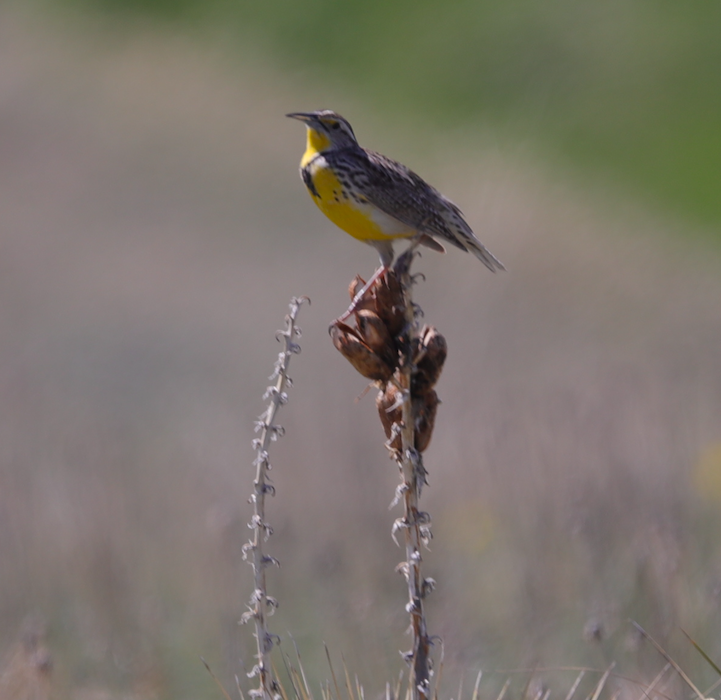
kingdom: Animalia
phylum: Chordata
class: Aves
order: Passeriformes
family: Icteridae
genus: Sturnella
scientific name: Sturnella neglecta
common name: Western meadowlark
